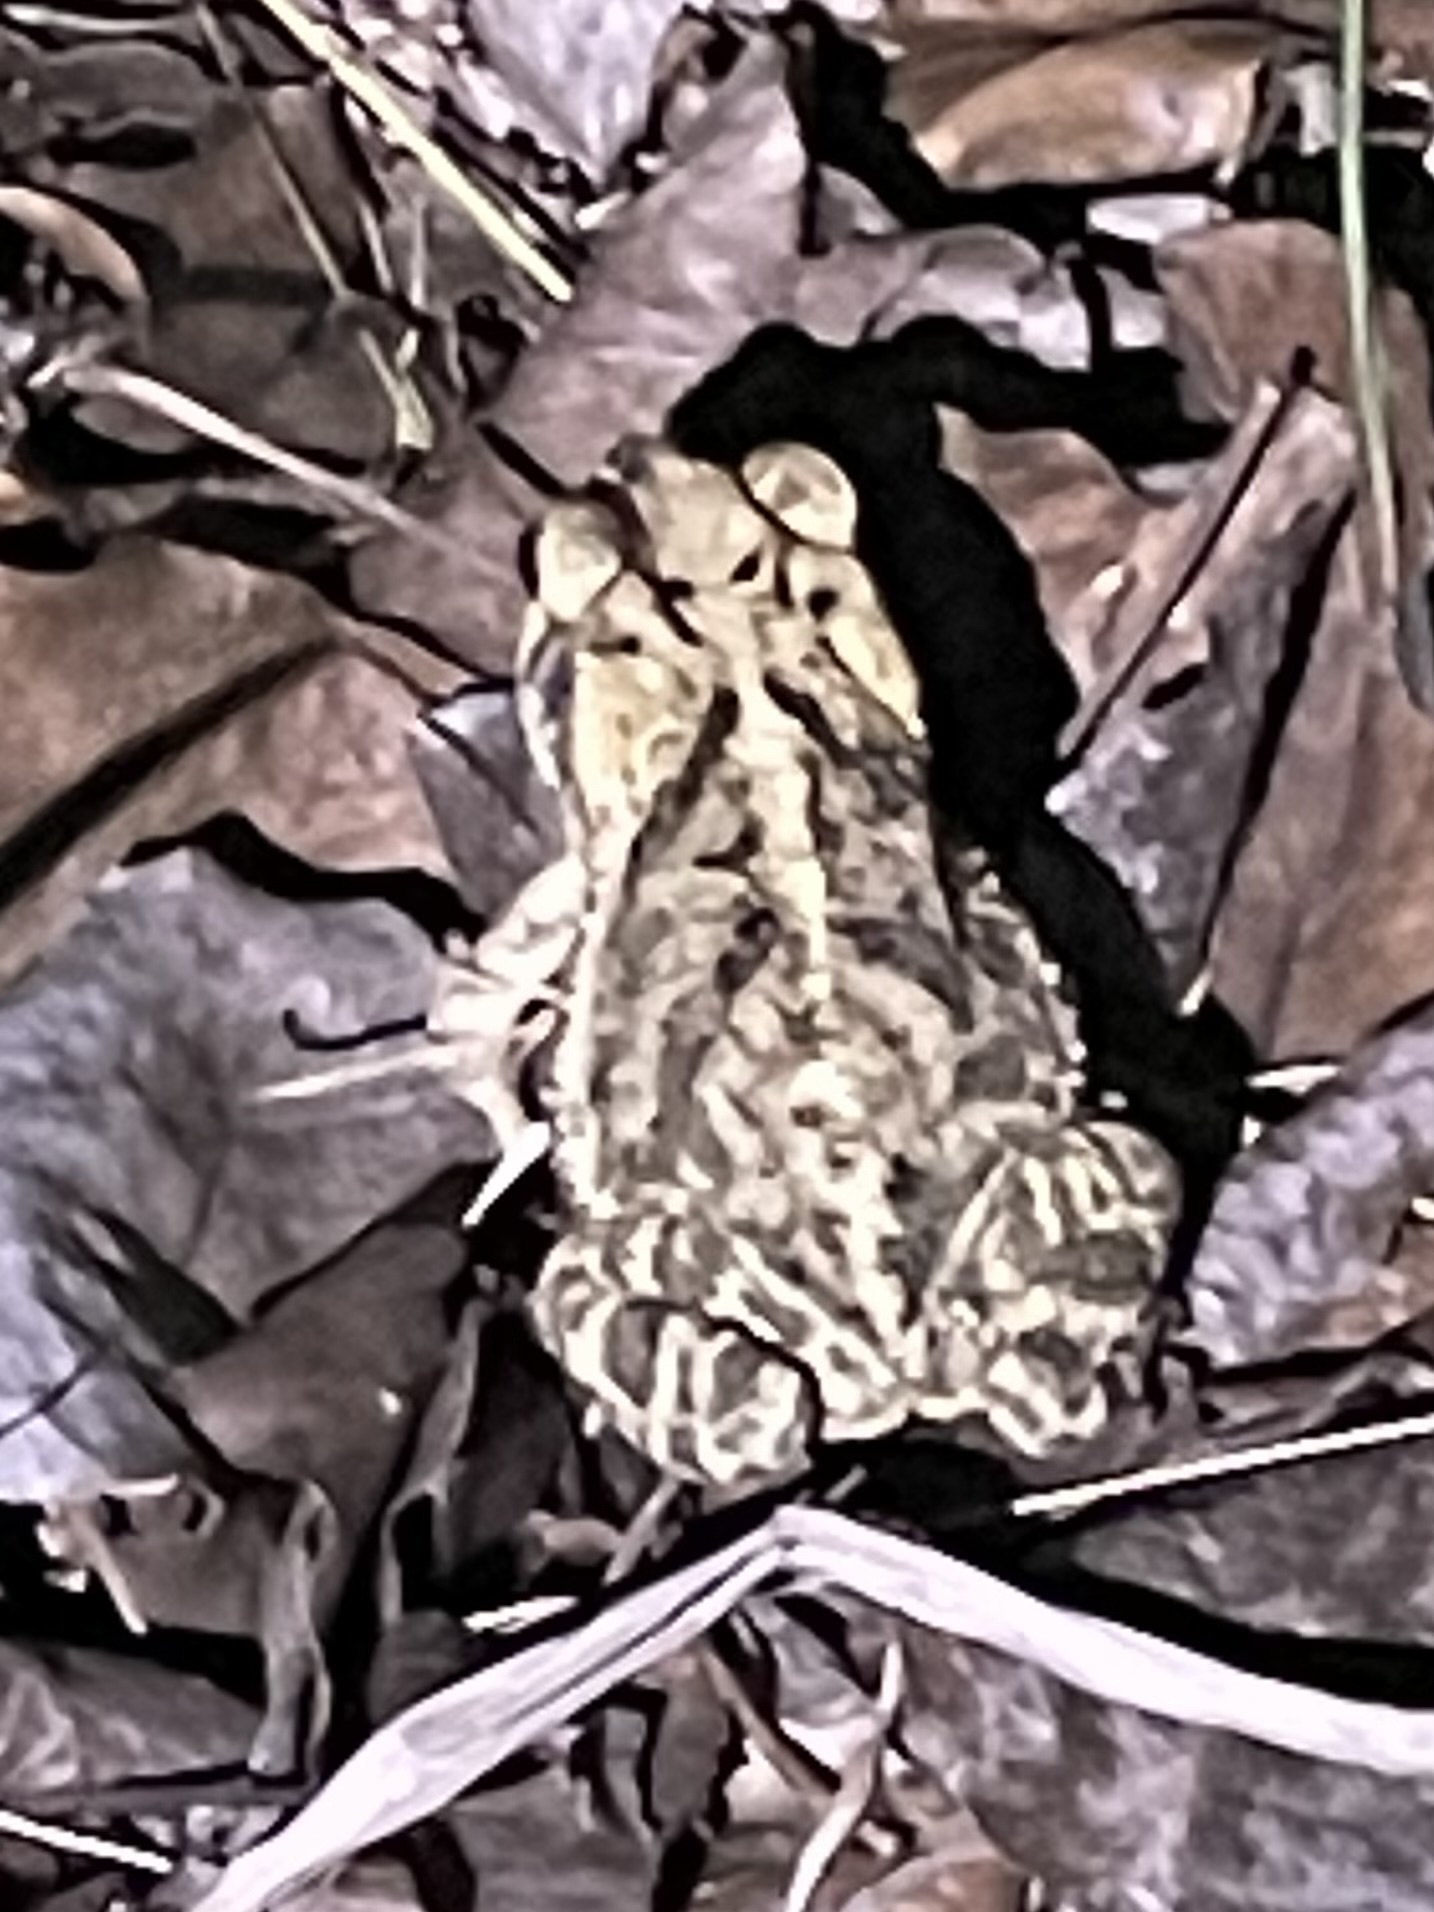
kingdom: Animalia
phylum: Chordata
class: Amphibia
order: Anura
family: Bufonidae
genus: Incilius
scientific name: Incilius nebulifer
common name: Gulf coast toad
